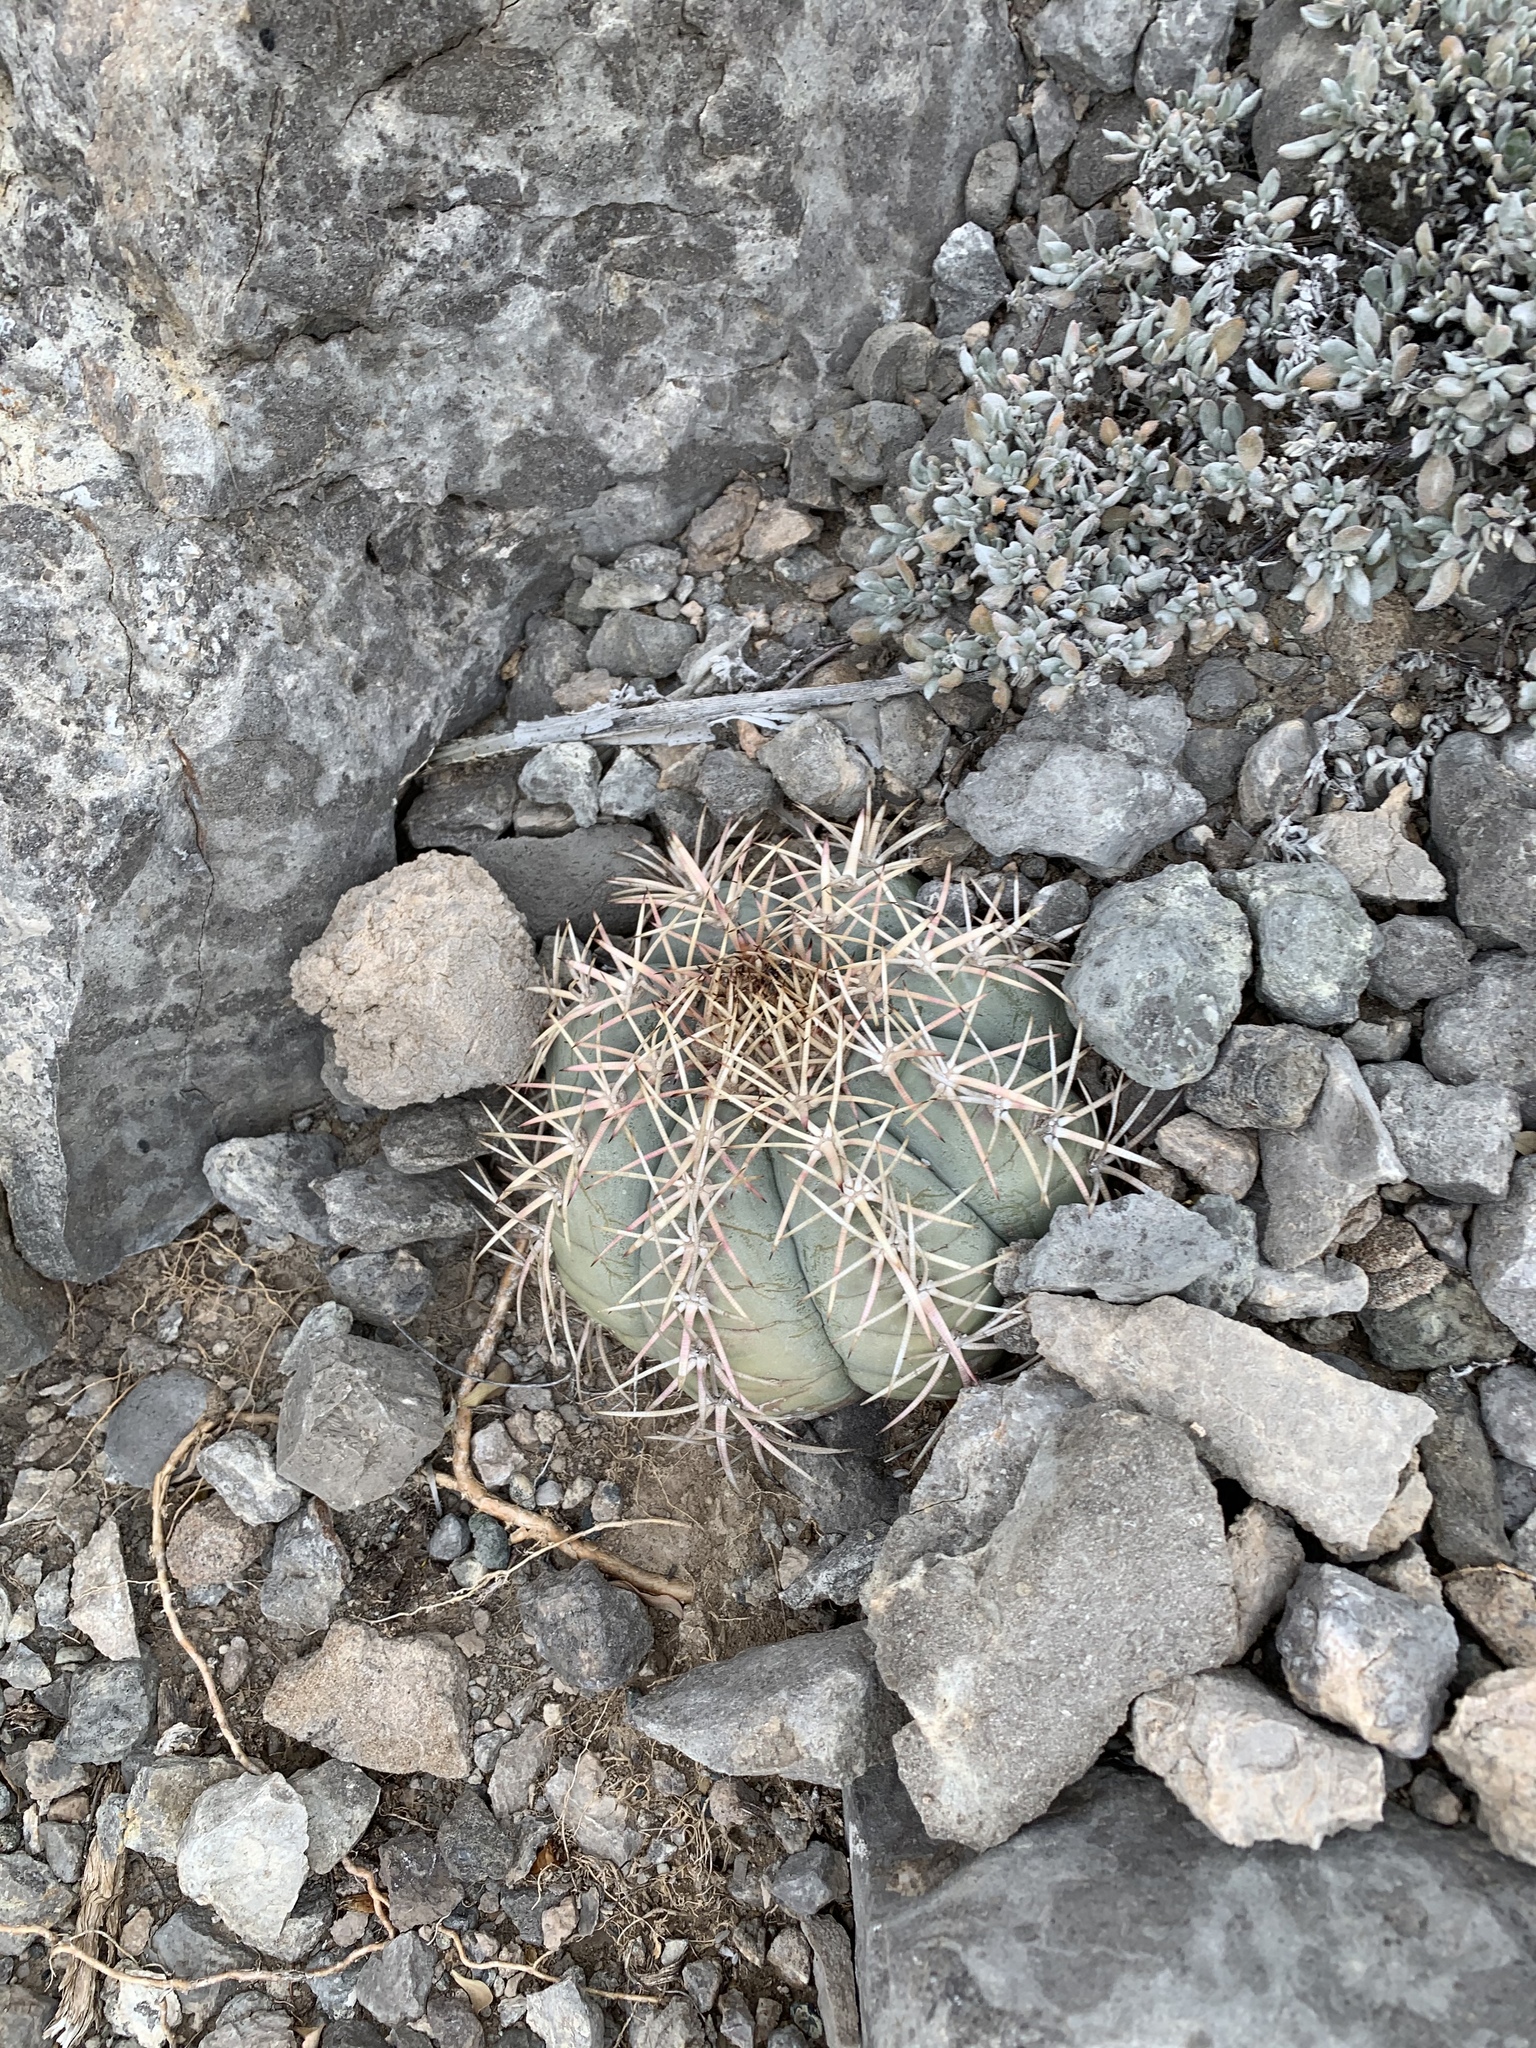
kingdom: Plantae
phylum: Tracheophyta
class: Magnoliopsida
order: Caryophyllales
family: Cactaceae
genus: Echinocactus
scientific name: Echinocactus horizonthalonius
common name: Devilshead
